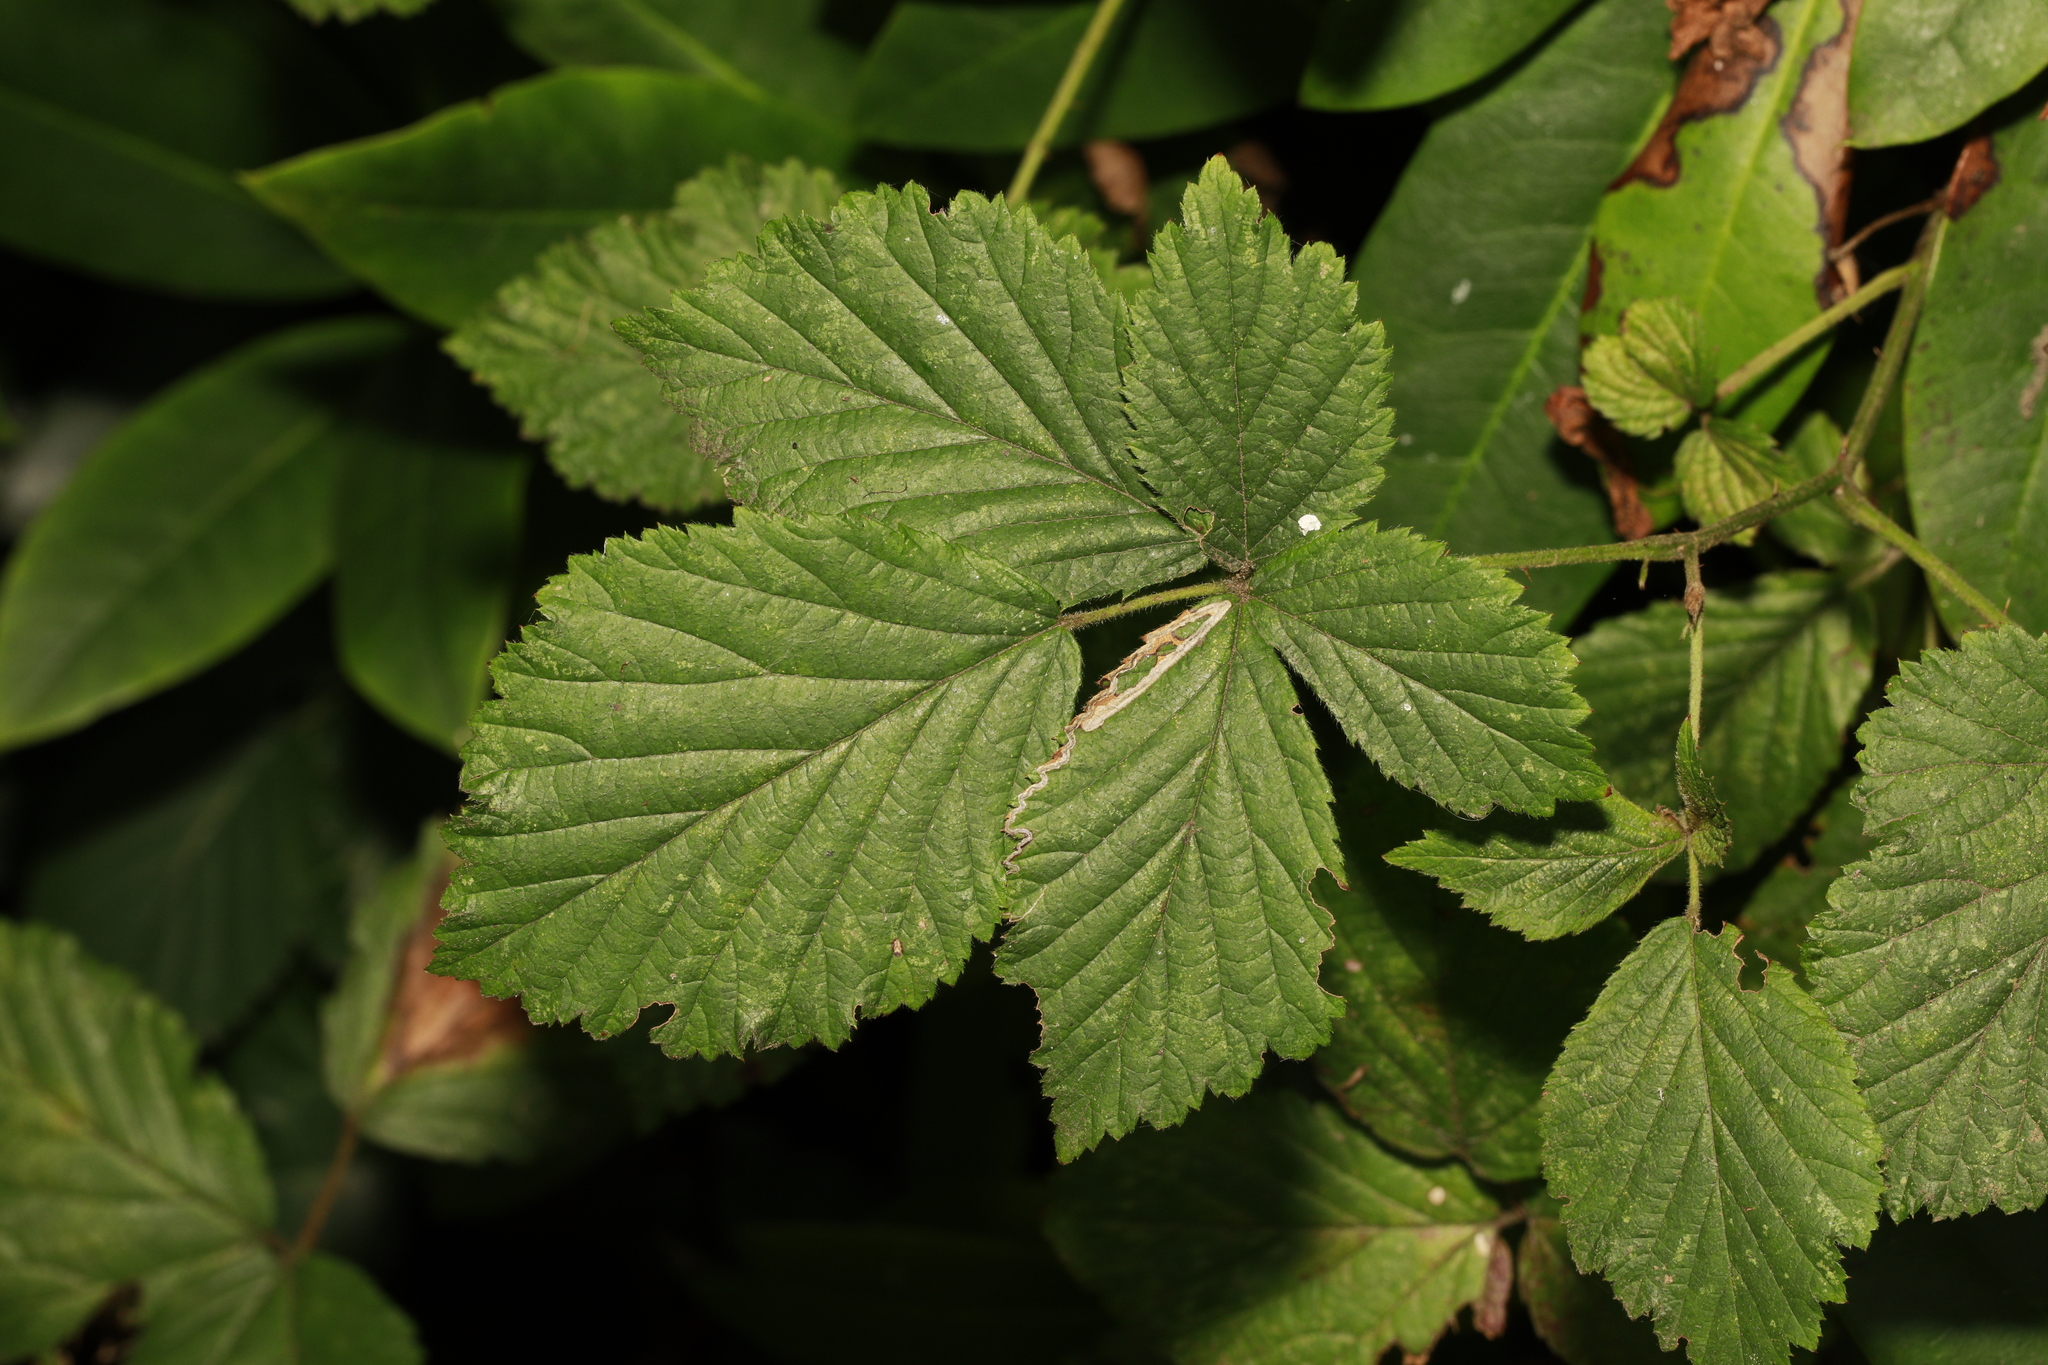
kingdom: Animalia
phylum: Arthropoda
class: Insecta
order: Lepidoptera
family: Nepticulidae
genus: Stigmella
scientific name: Stigmella aurella
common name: Golden pigmy
